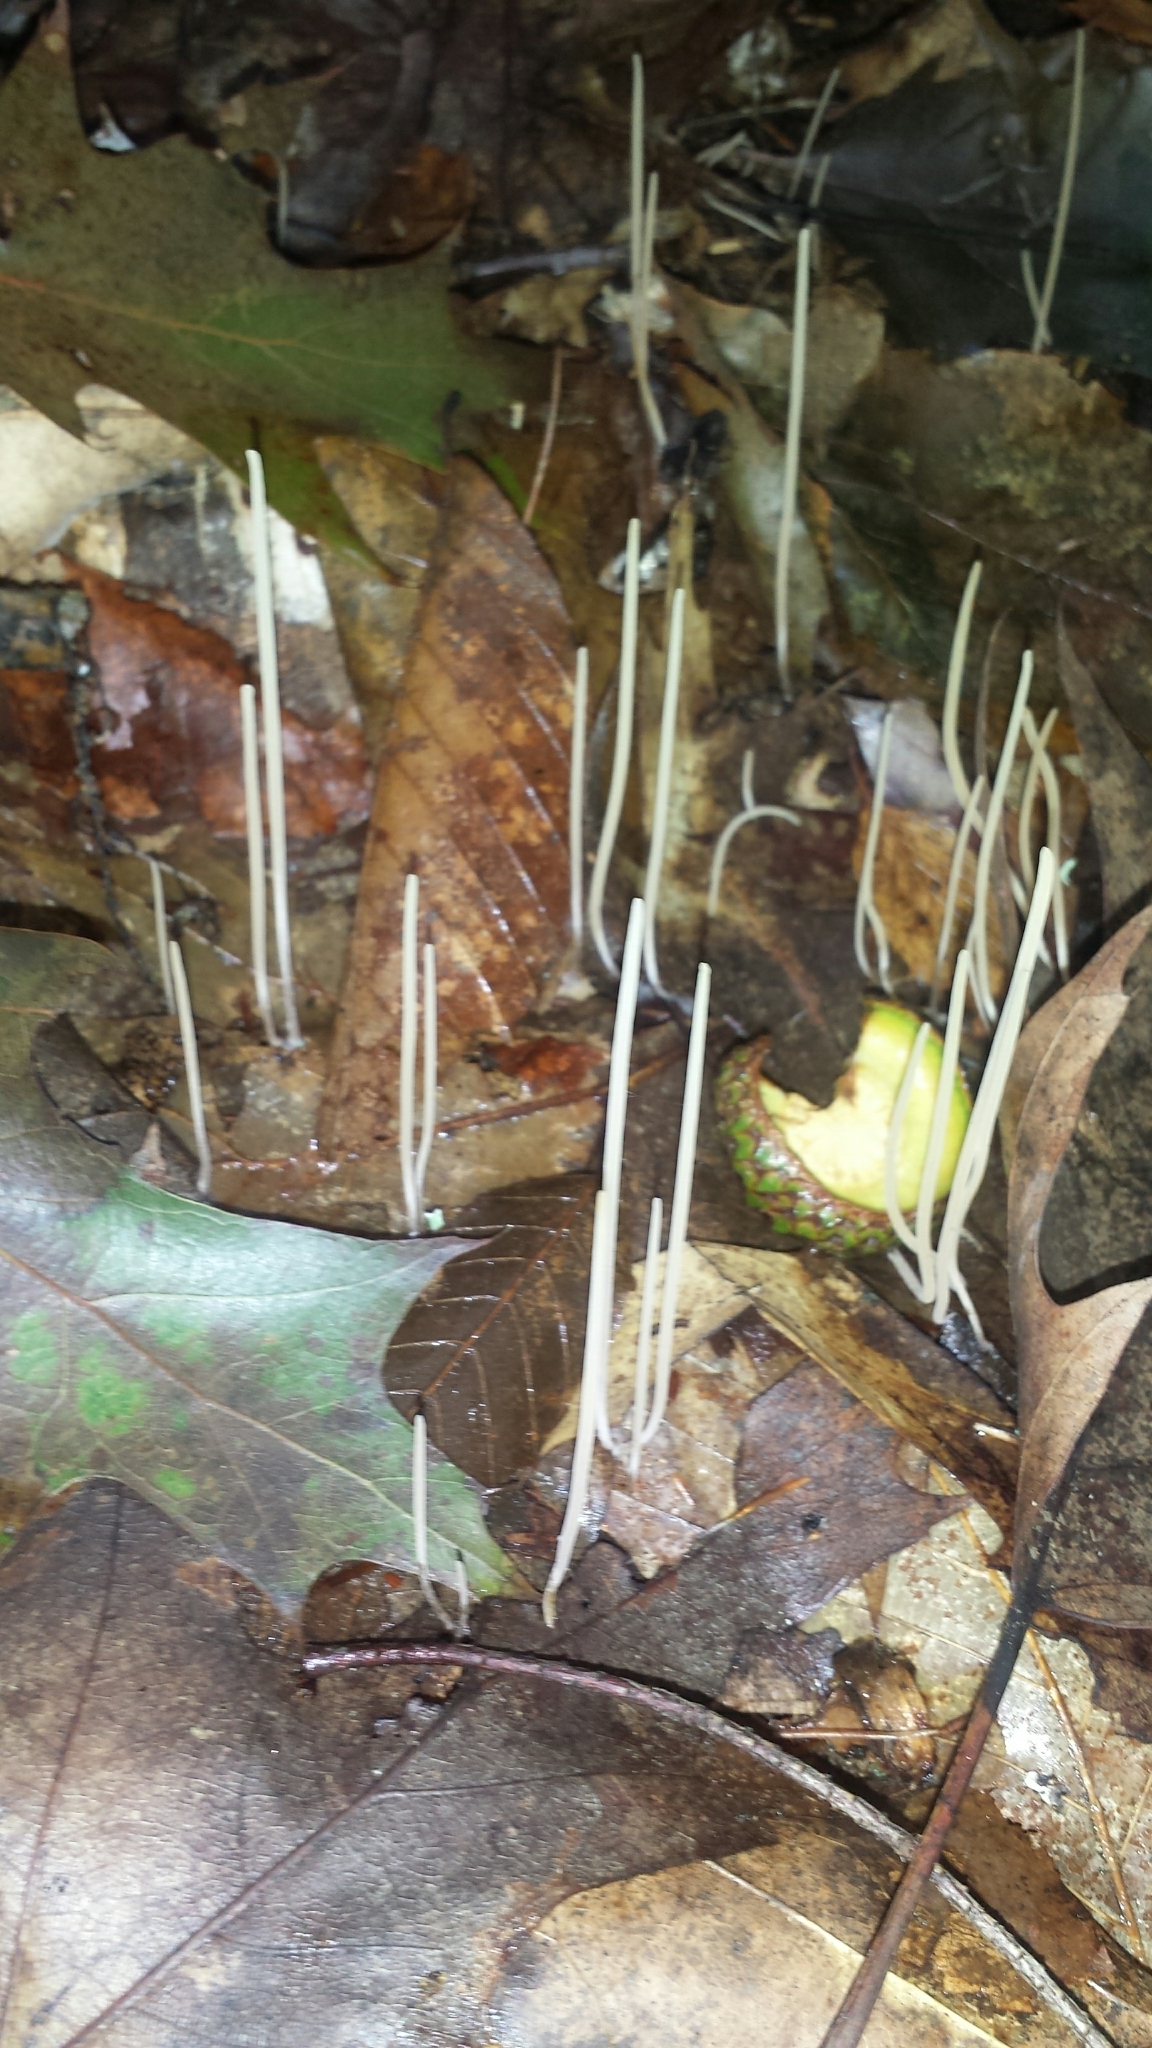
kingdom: Fungi
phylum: Basidiomycota
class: Agaricomycetes
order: Agaricales
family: Typhulaceae
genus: Typhula
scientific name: Typhula juncea
